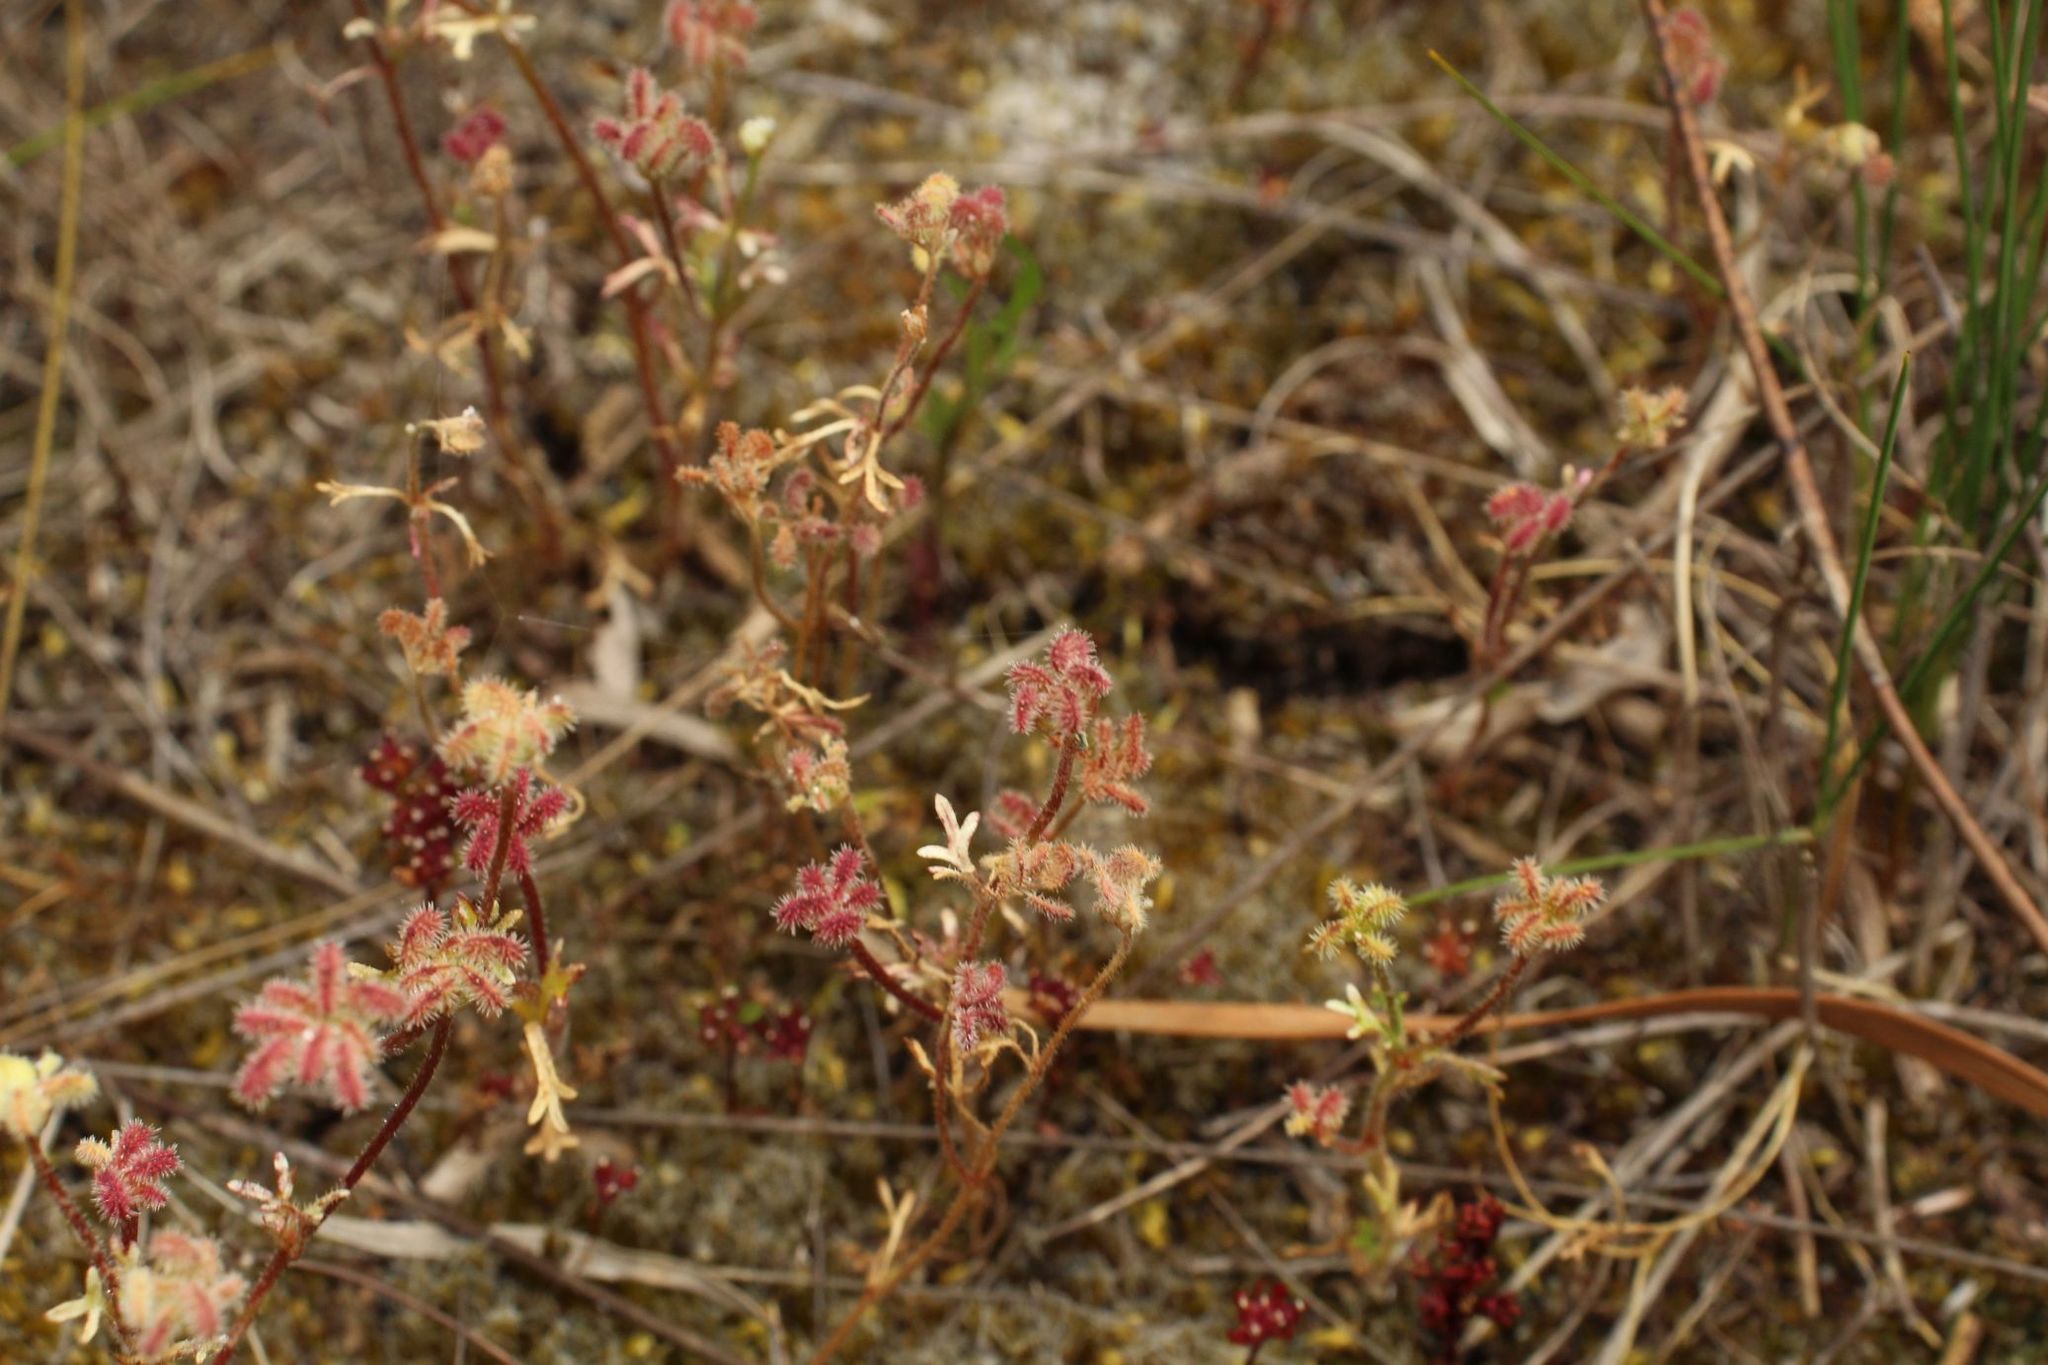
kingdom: Plantae
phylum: Tracheophyta
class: Magnoliopsida
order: Apiales
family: Araliaceae
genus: Trachymene
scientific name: Trachymene pilosa
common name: Dwarf trachymene
